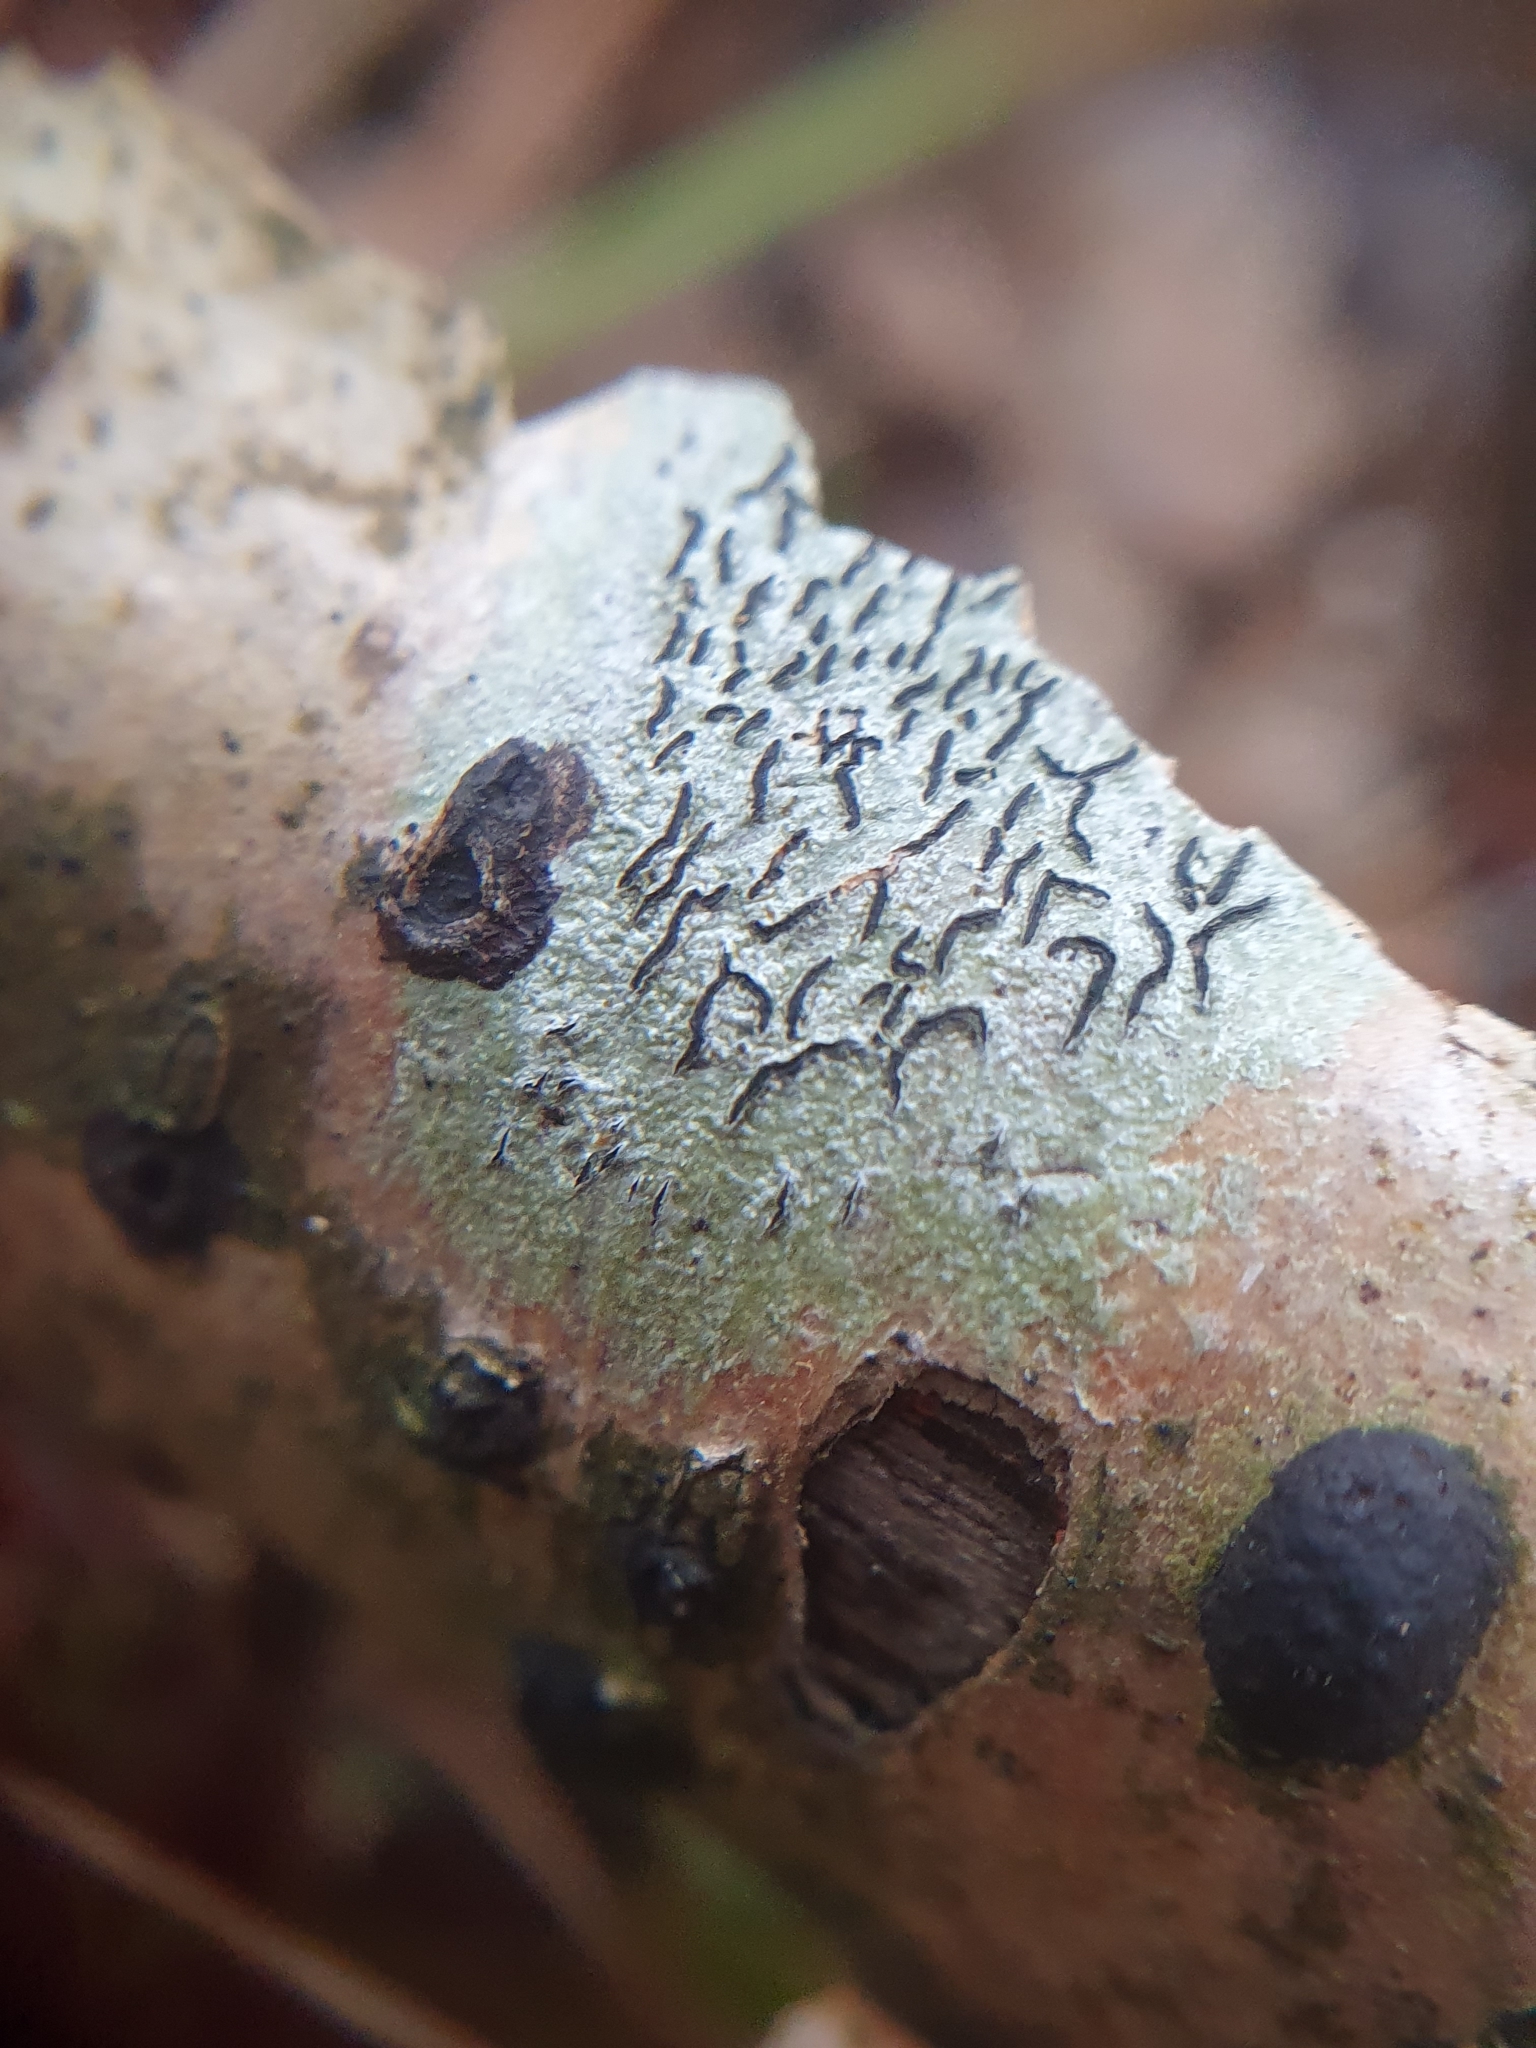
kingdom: Fungi
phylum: Ascomycota
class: Lecanoromycetes
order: Ostropales
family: Graphidaceae
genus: Graphis
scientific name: Graphis scripta
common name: Script lichen
